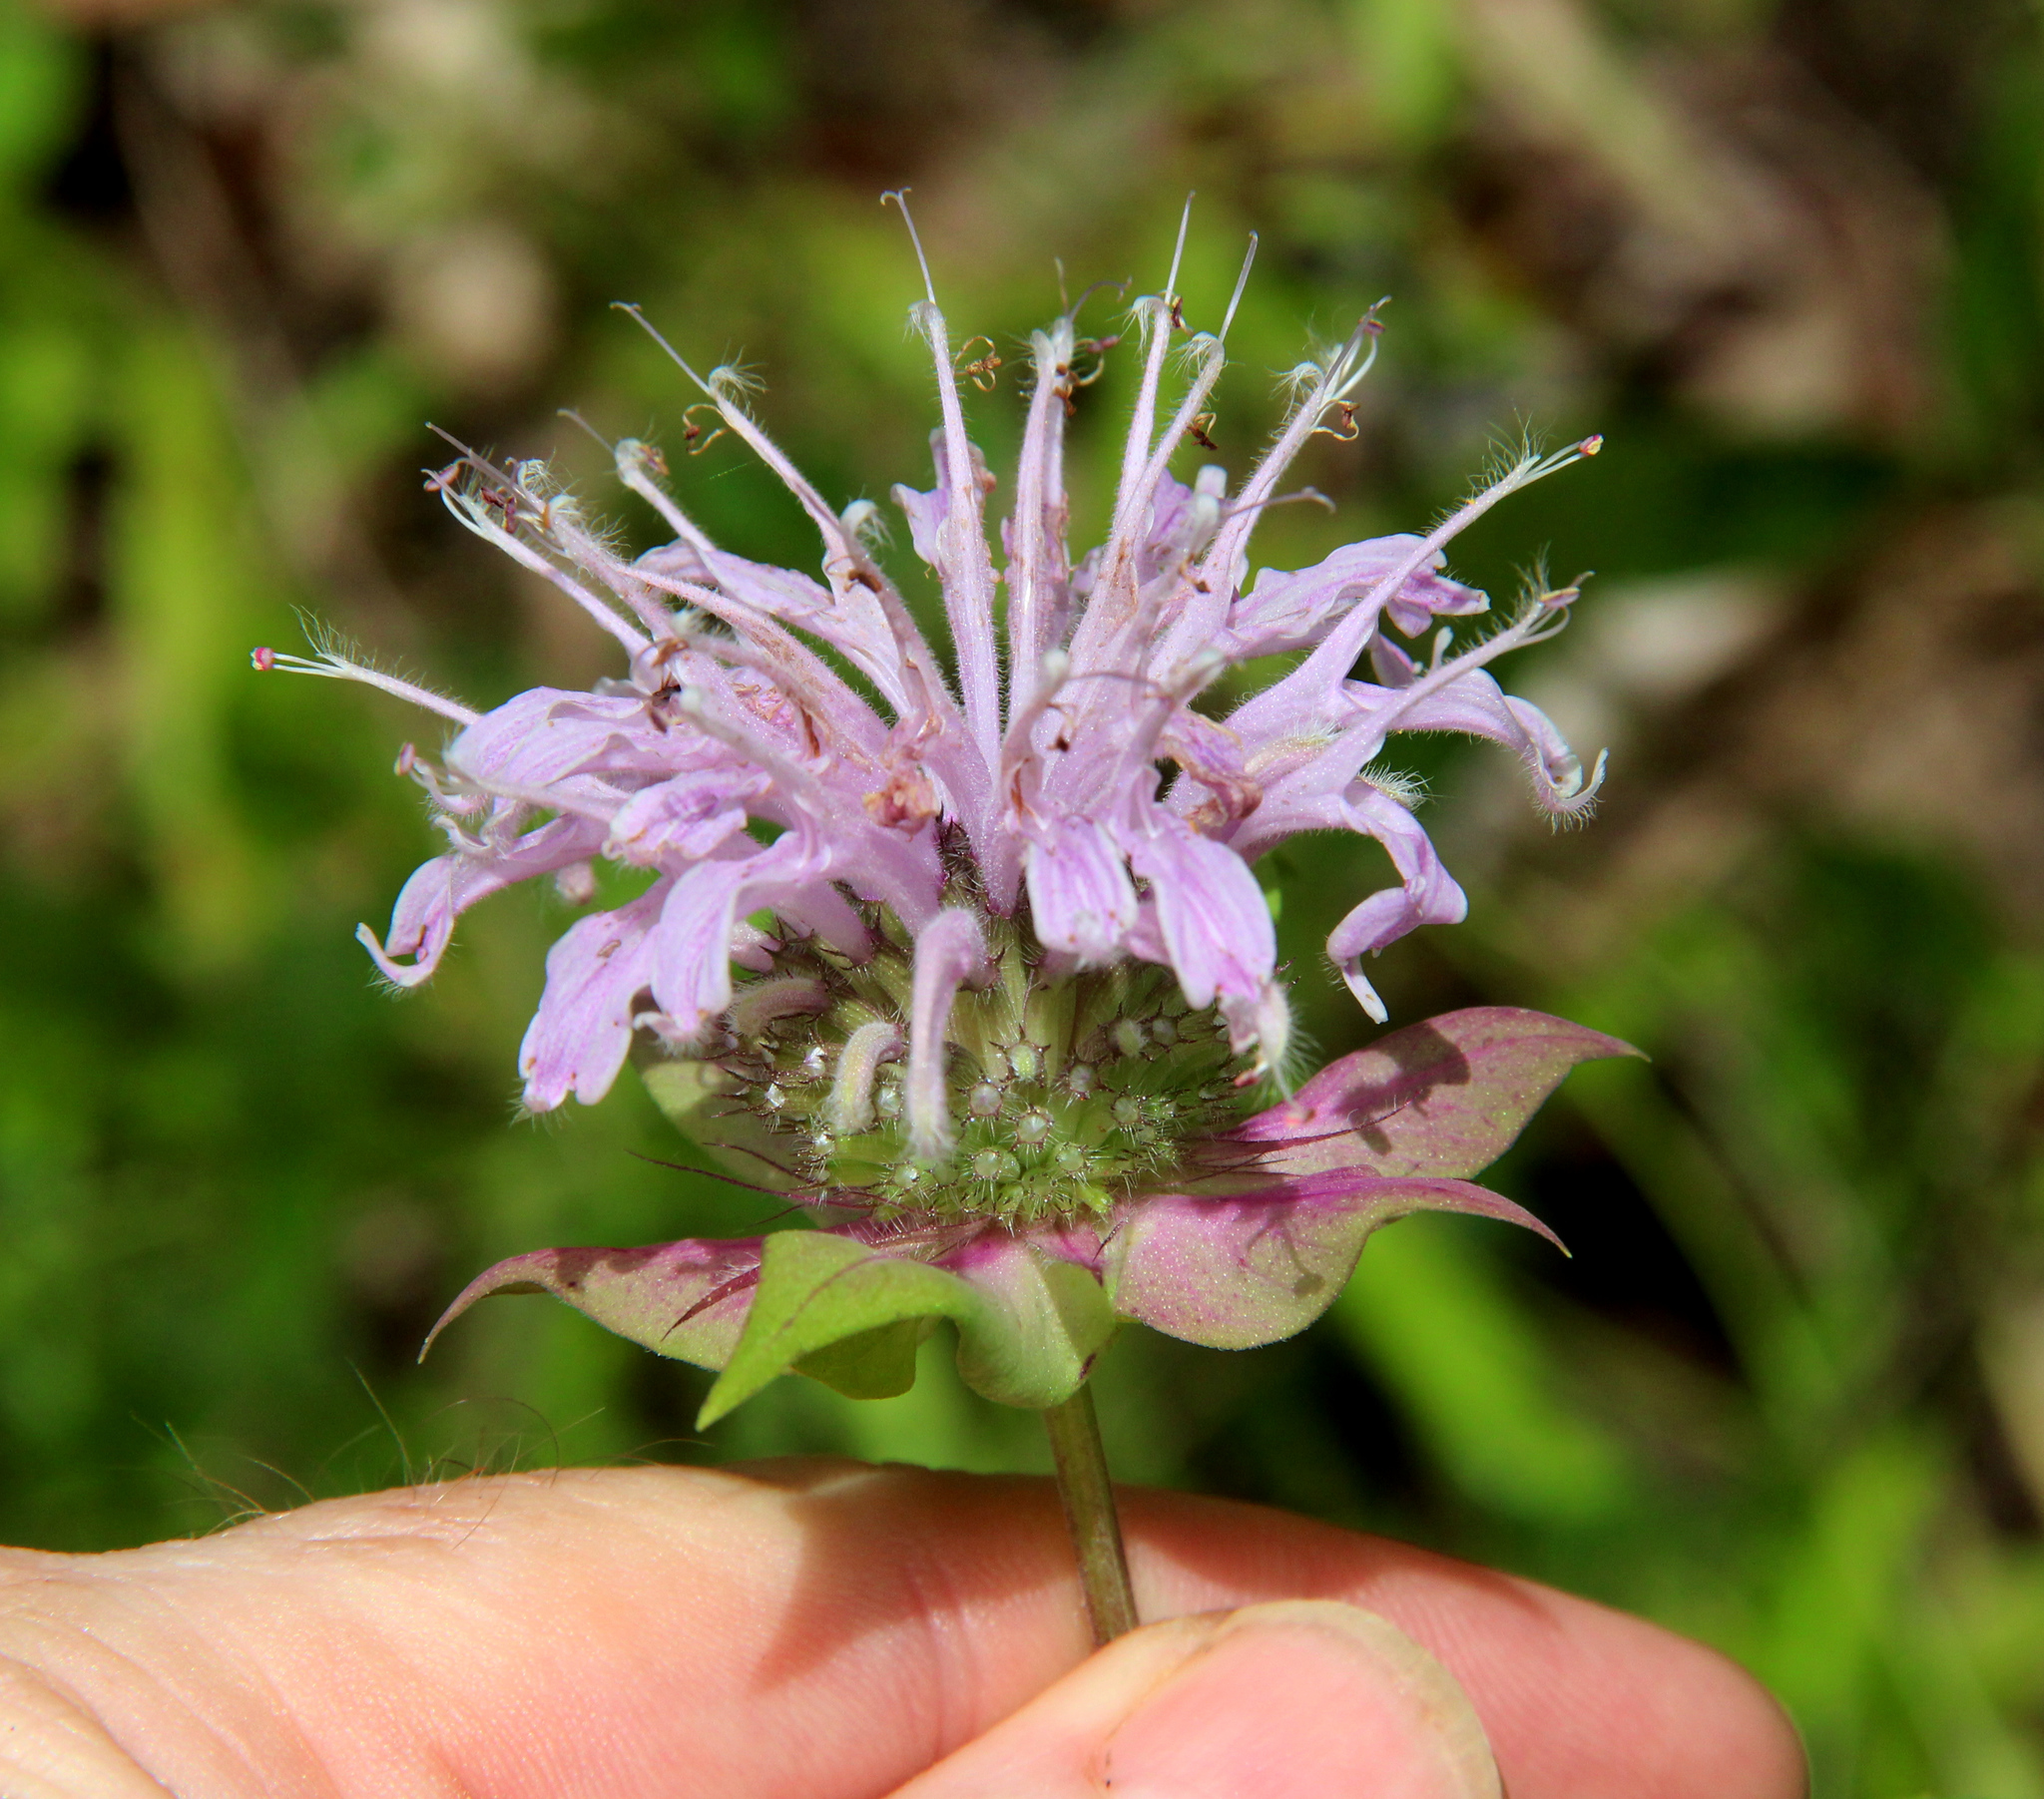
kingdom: Plantae
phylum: Tracheophyta
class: Magnoliopsida
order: Lamiales
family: Lamiaceae
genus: Monarda
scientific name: Monarda fistulosa
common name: Purple beebalm
